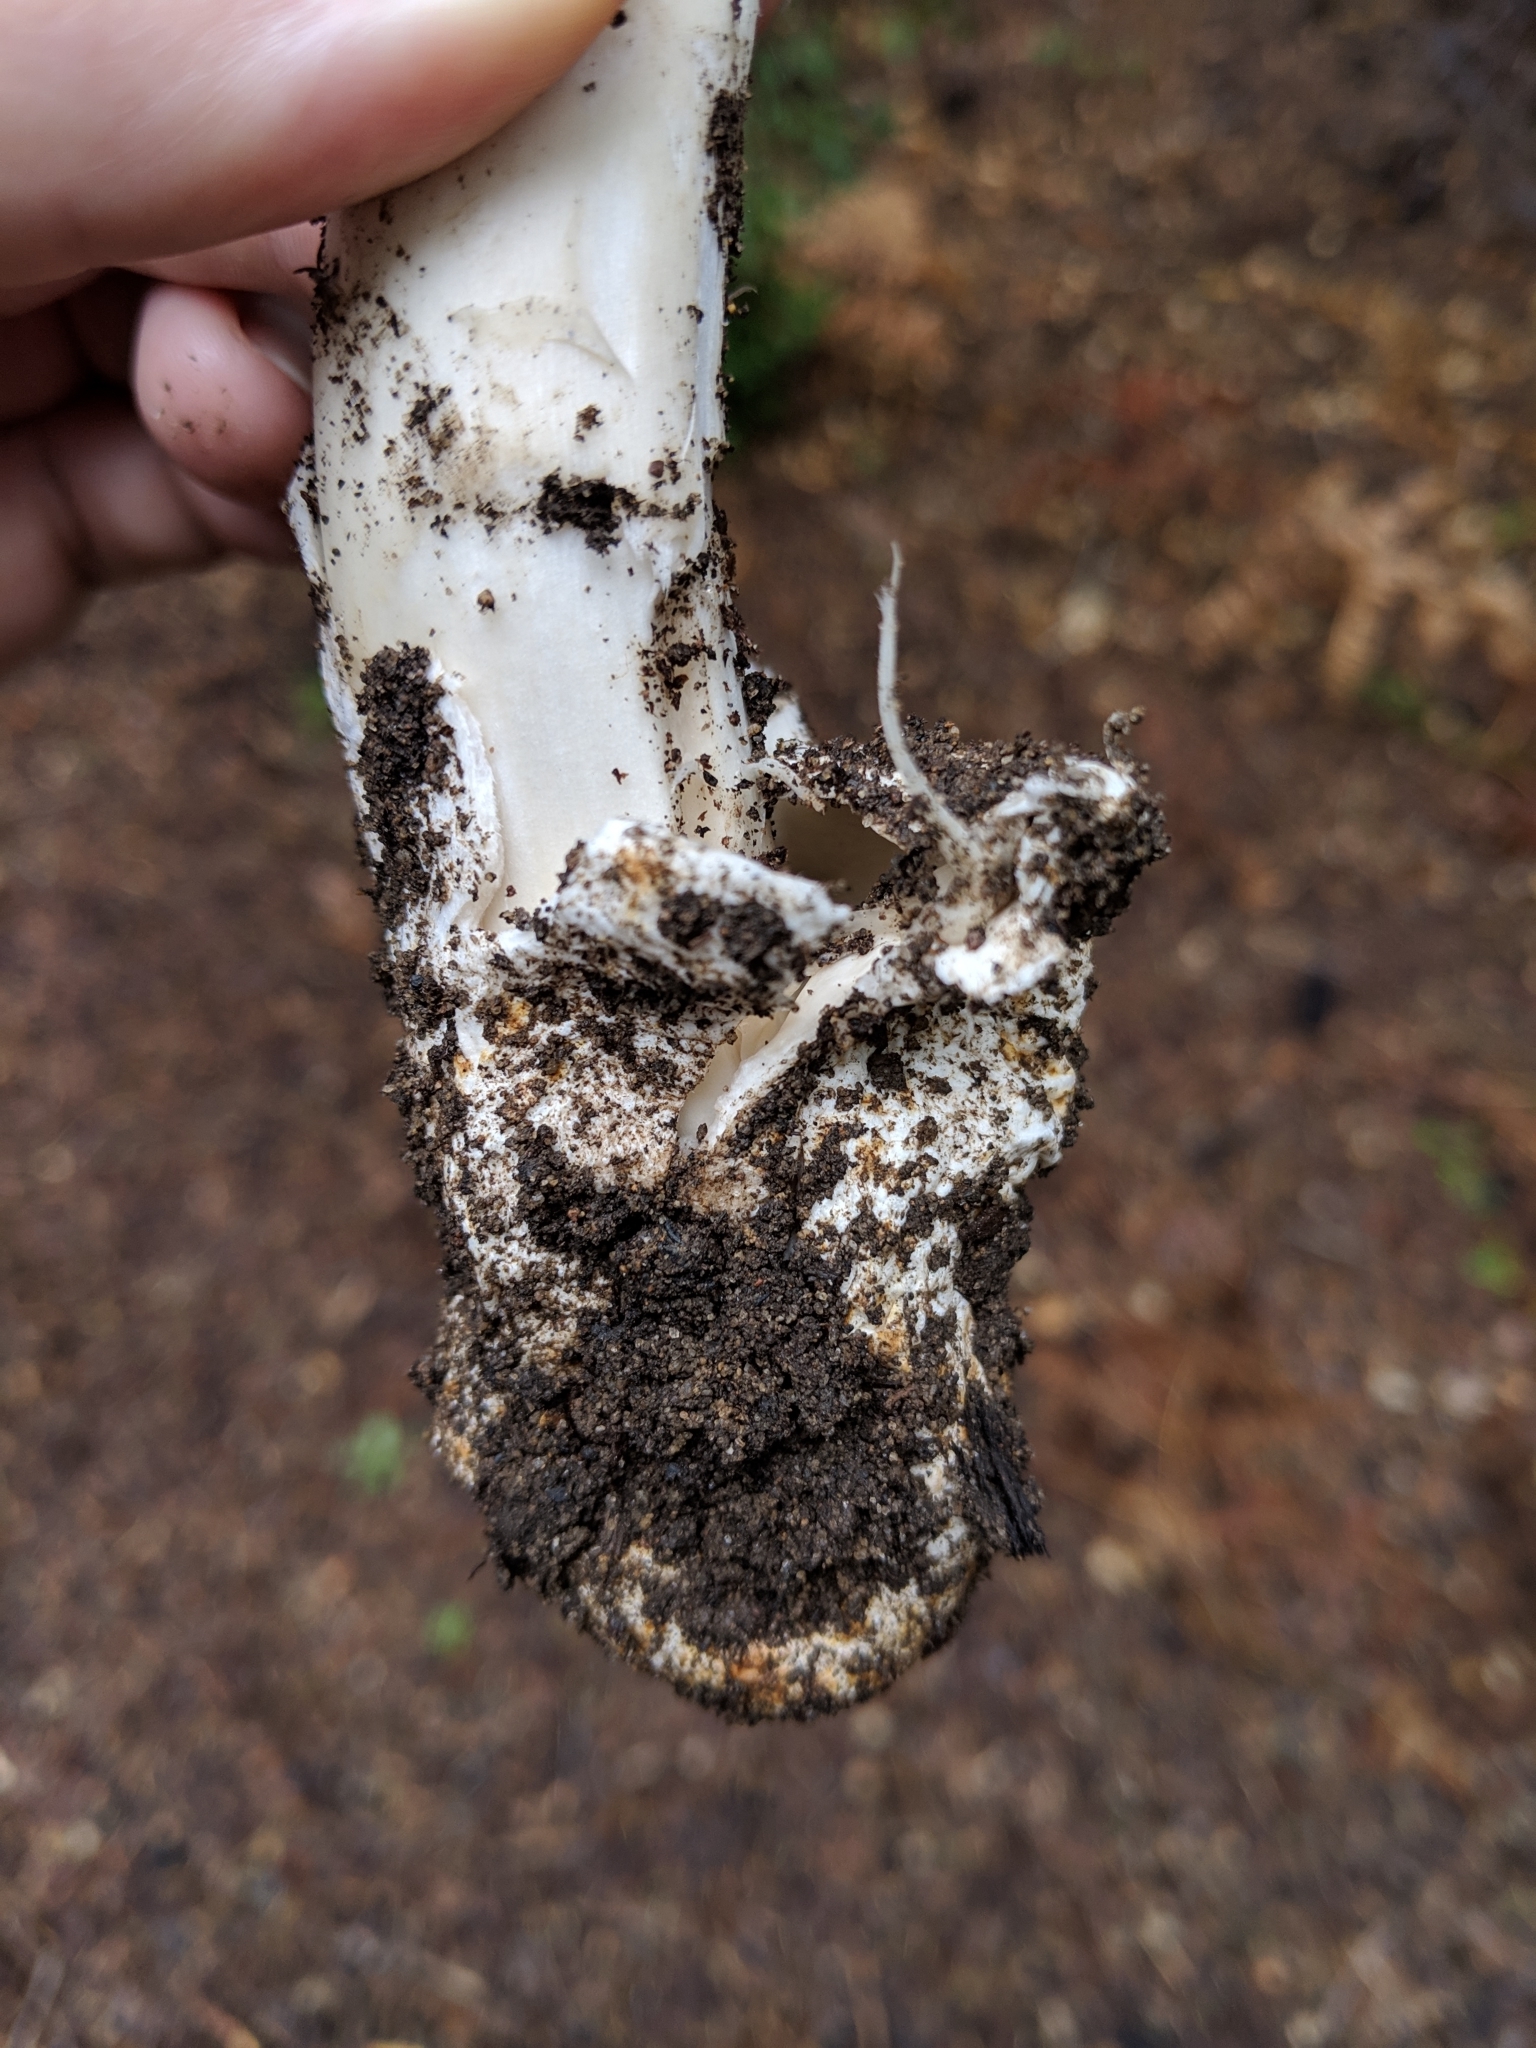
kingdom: Fungi
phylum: Basidiomycota
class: Agaricomycetes
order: Agaricales
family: Amanitaceae
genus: Amanita
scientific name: Amanita pachycolea
